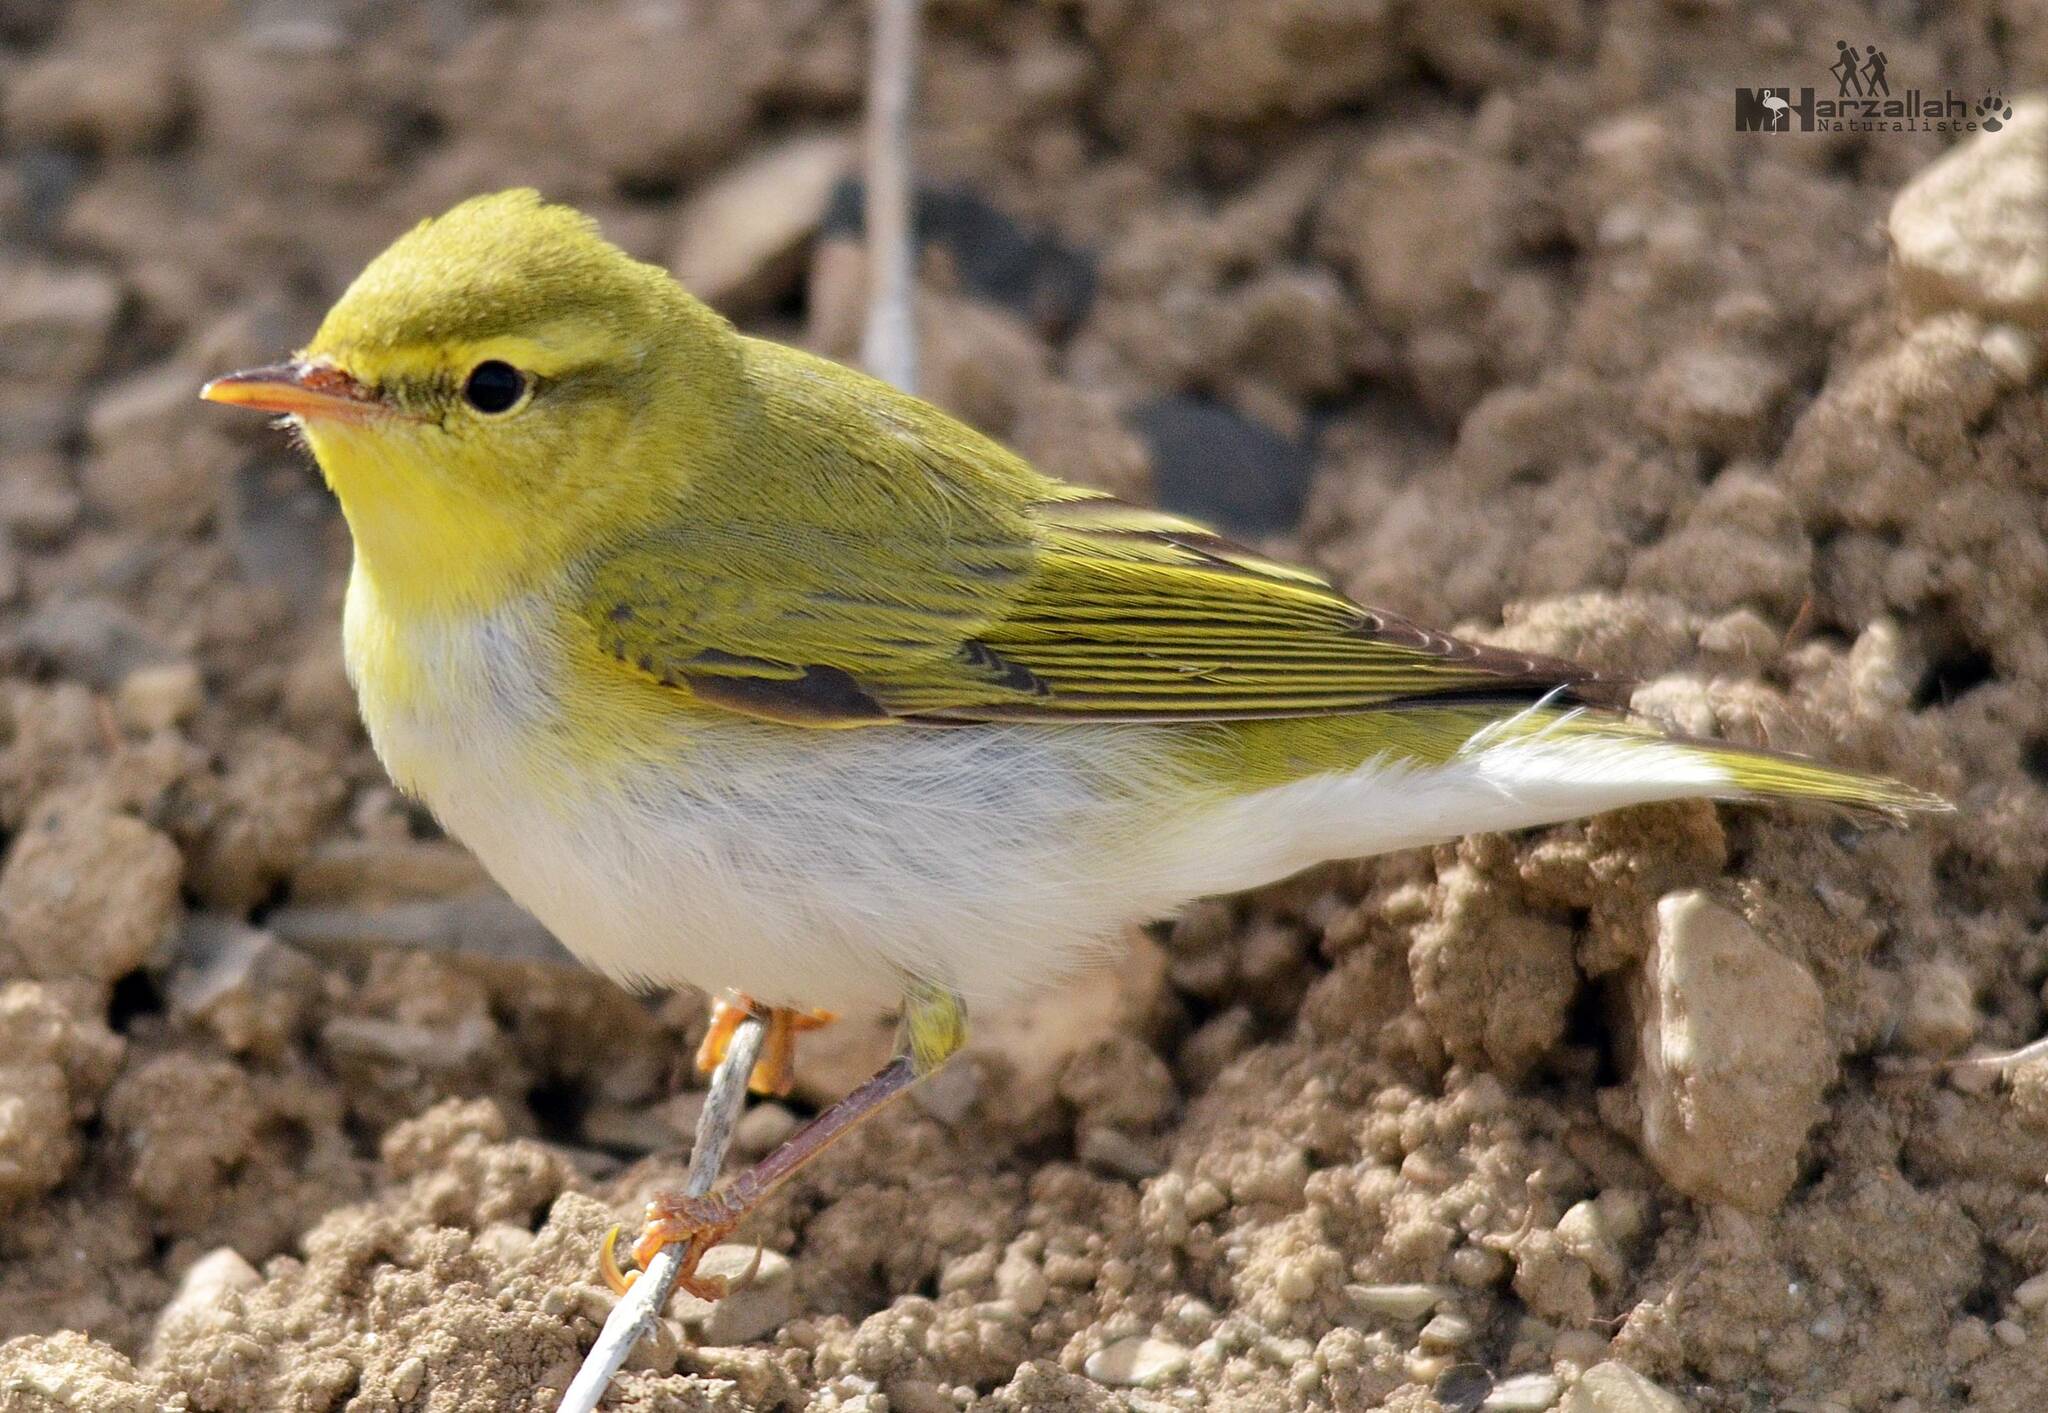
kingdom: Animalia
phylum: Chordata
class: Aves
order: Passeriformes
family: Phylloscopidae
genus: Phylloscopus
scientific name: Phylloscopus sibillatrix
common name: Wood warbler
